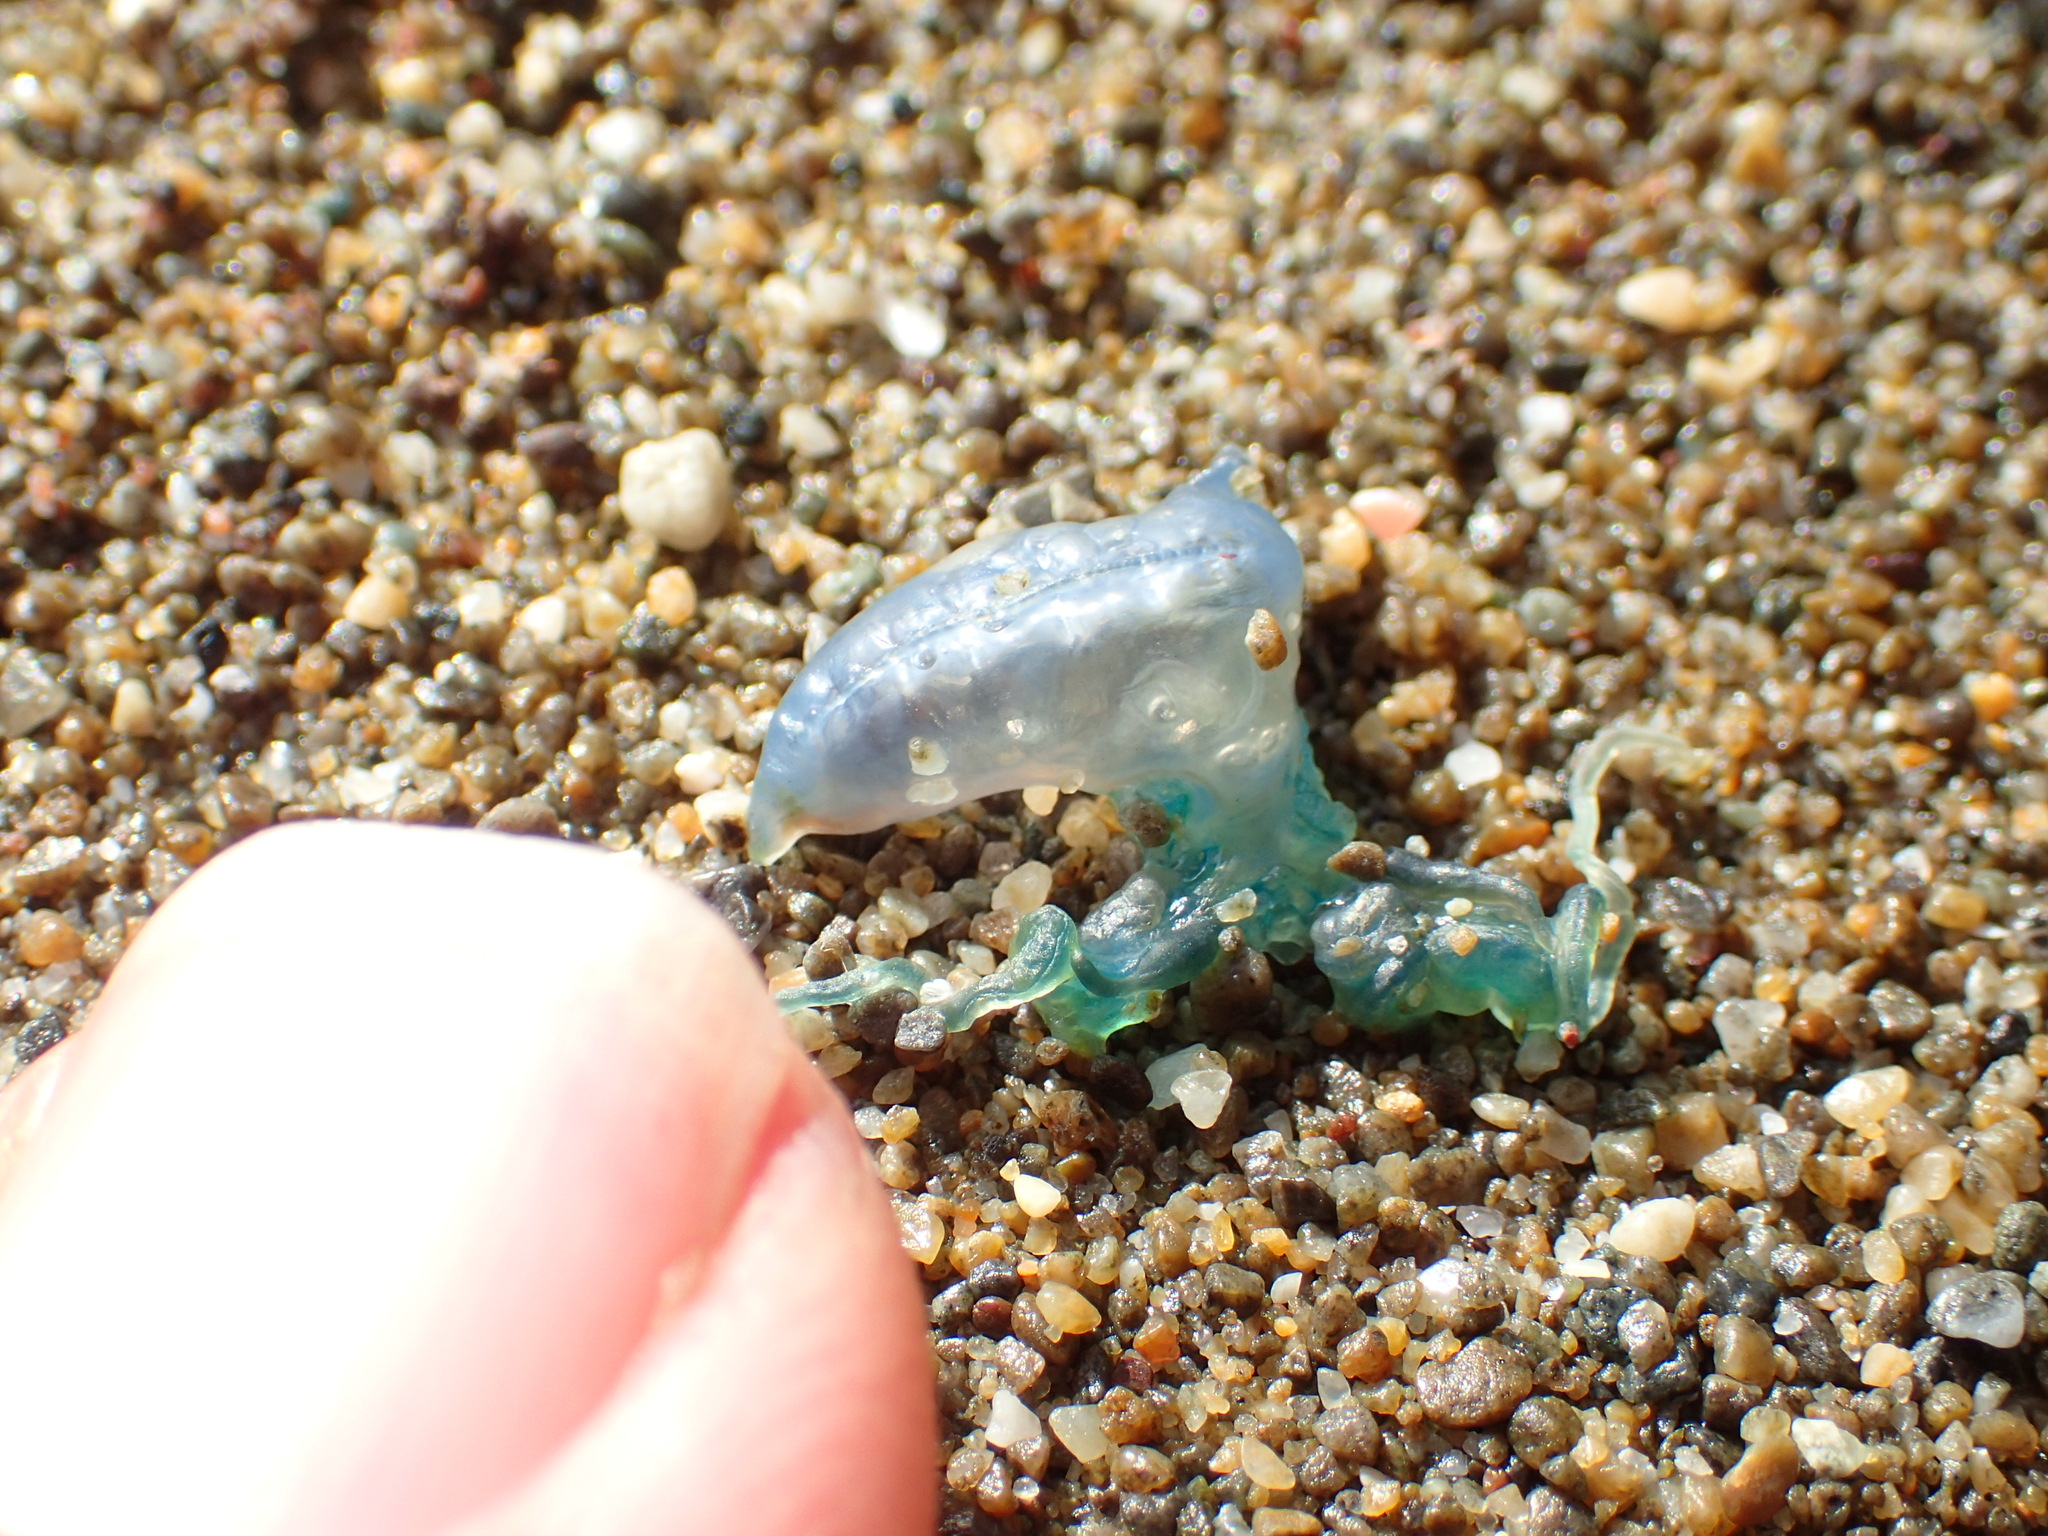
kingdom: Animalia
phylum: Cnidaria
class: Hydrozoa
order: Siphonophorae
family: Physaliidae
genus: Physalia
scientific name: Physalia
